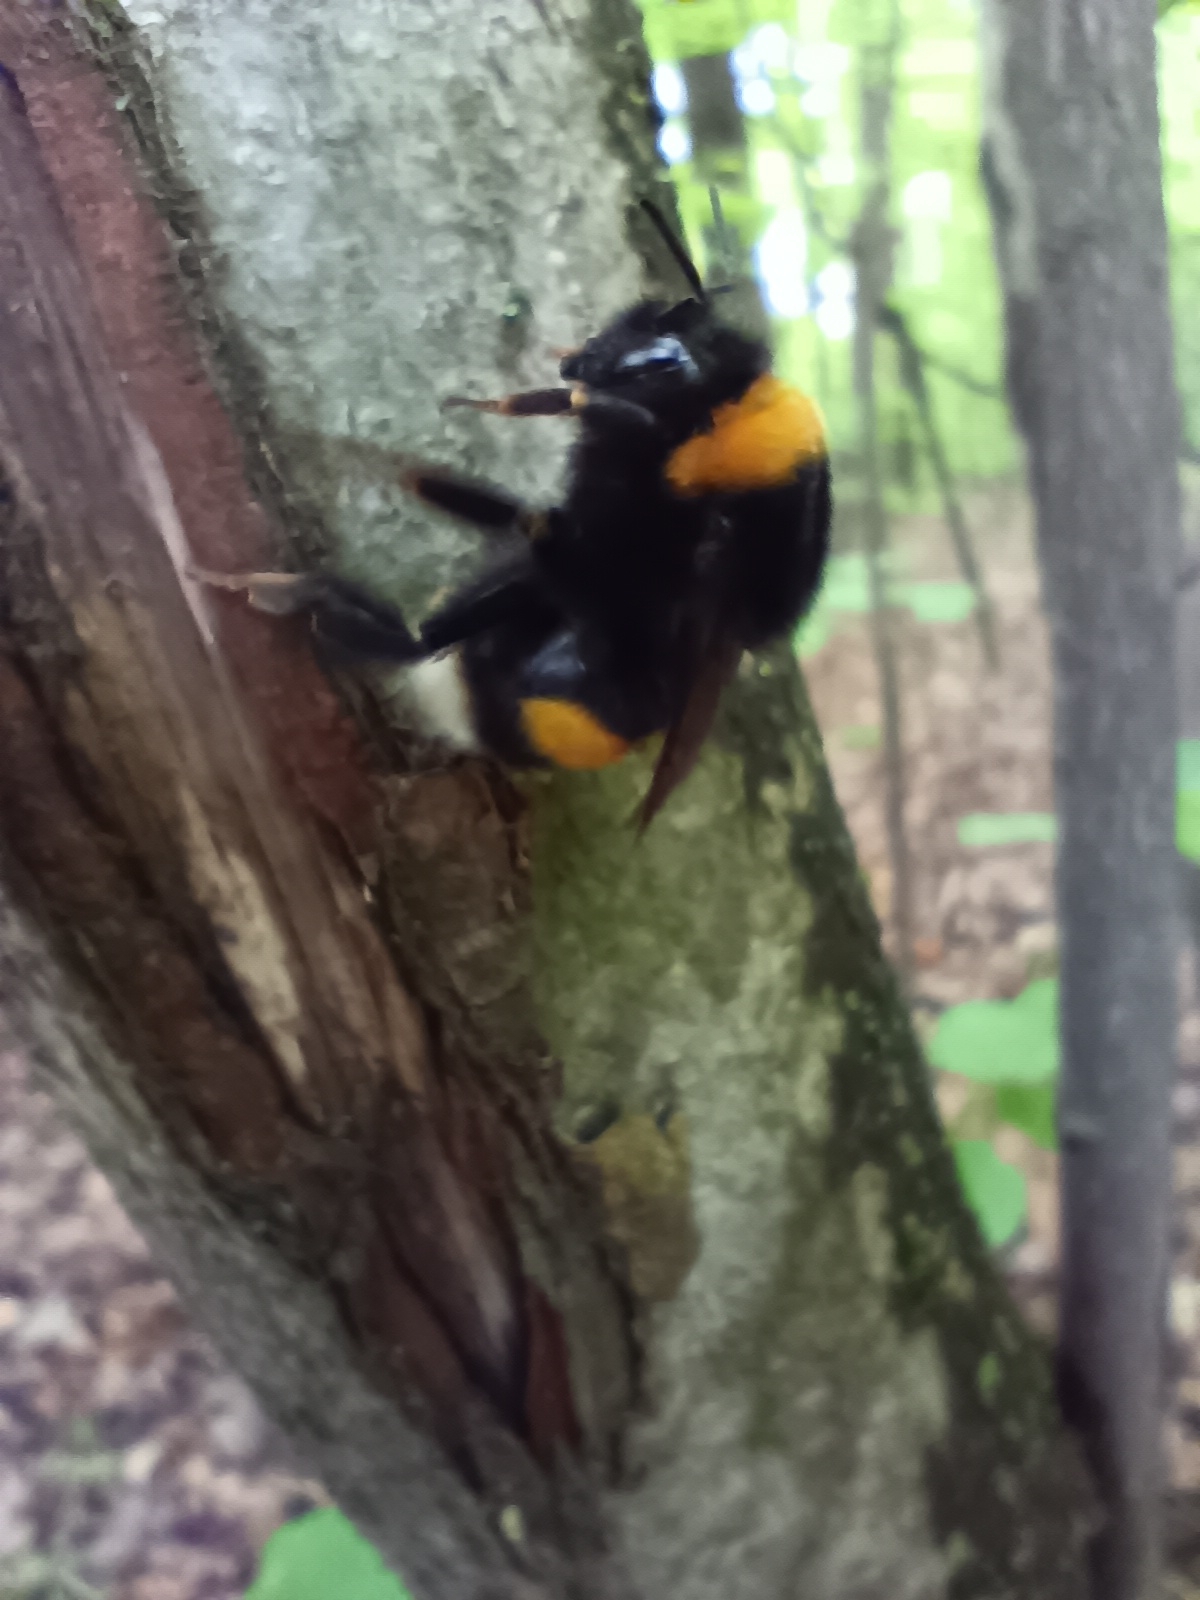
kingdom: Animalia
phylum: Arthropoda
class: Insecta
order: Hymenoptera
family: Apidae
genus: Bombus
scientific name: Bombus
